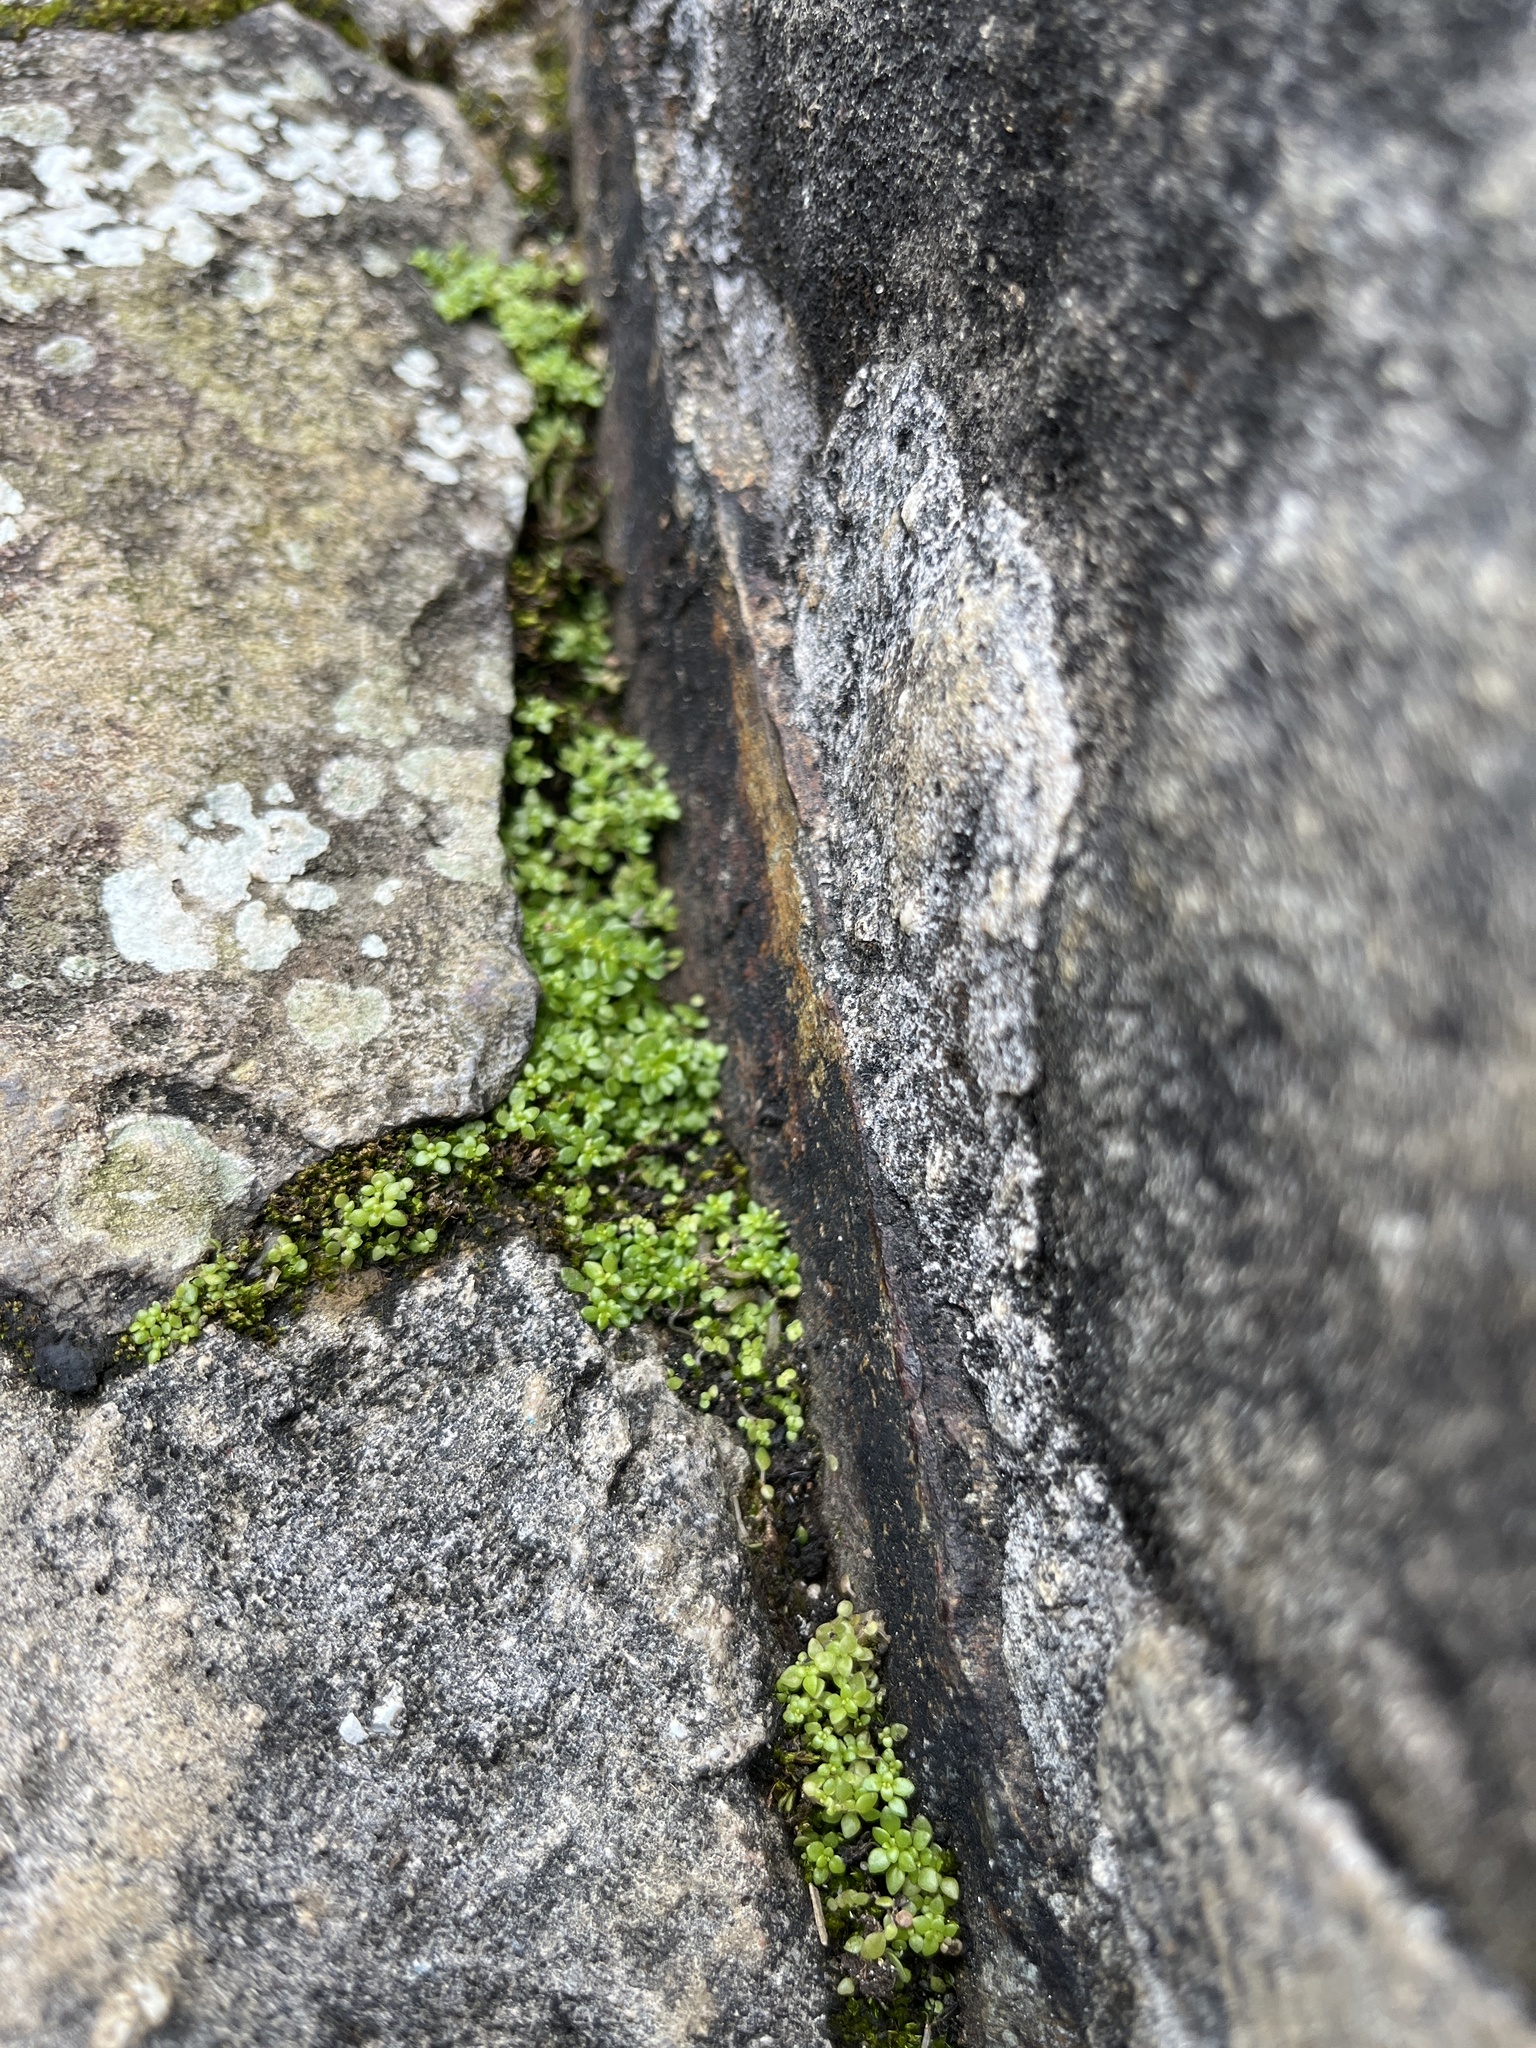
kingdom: Plantae
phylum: Tracheophyta
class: Magnoliopsida
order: Rosales
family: Urticaceae
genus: Pilea
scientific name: Pilea microphylla
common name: Artillery-plant
